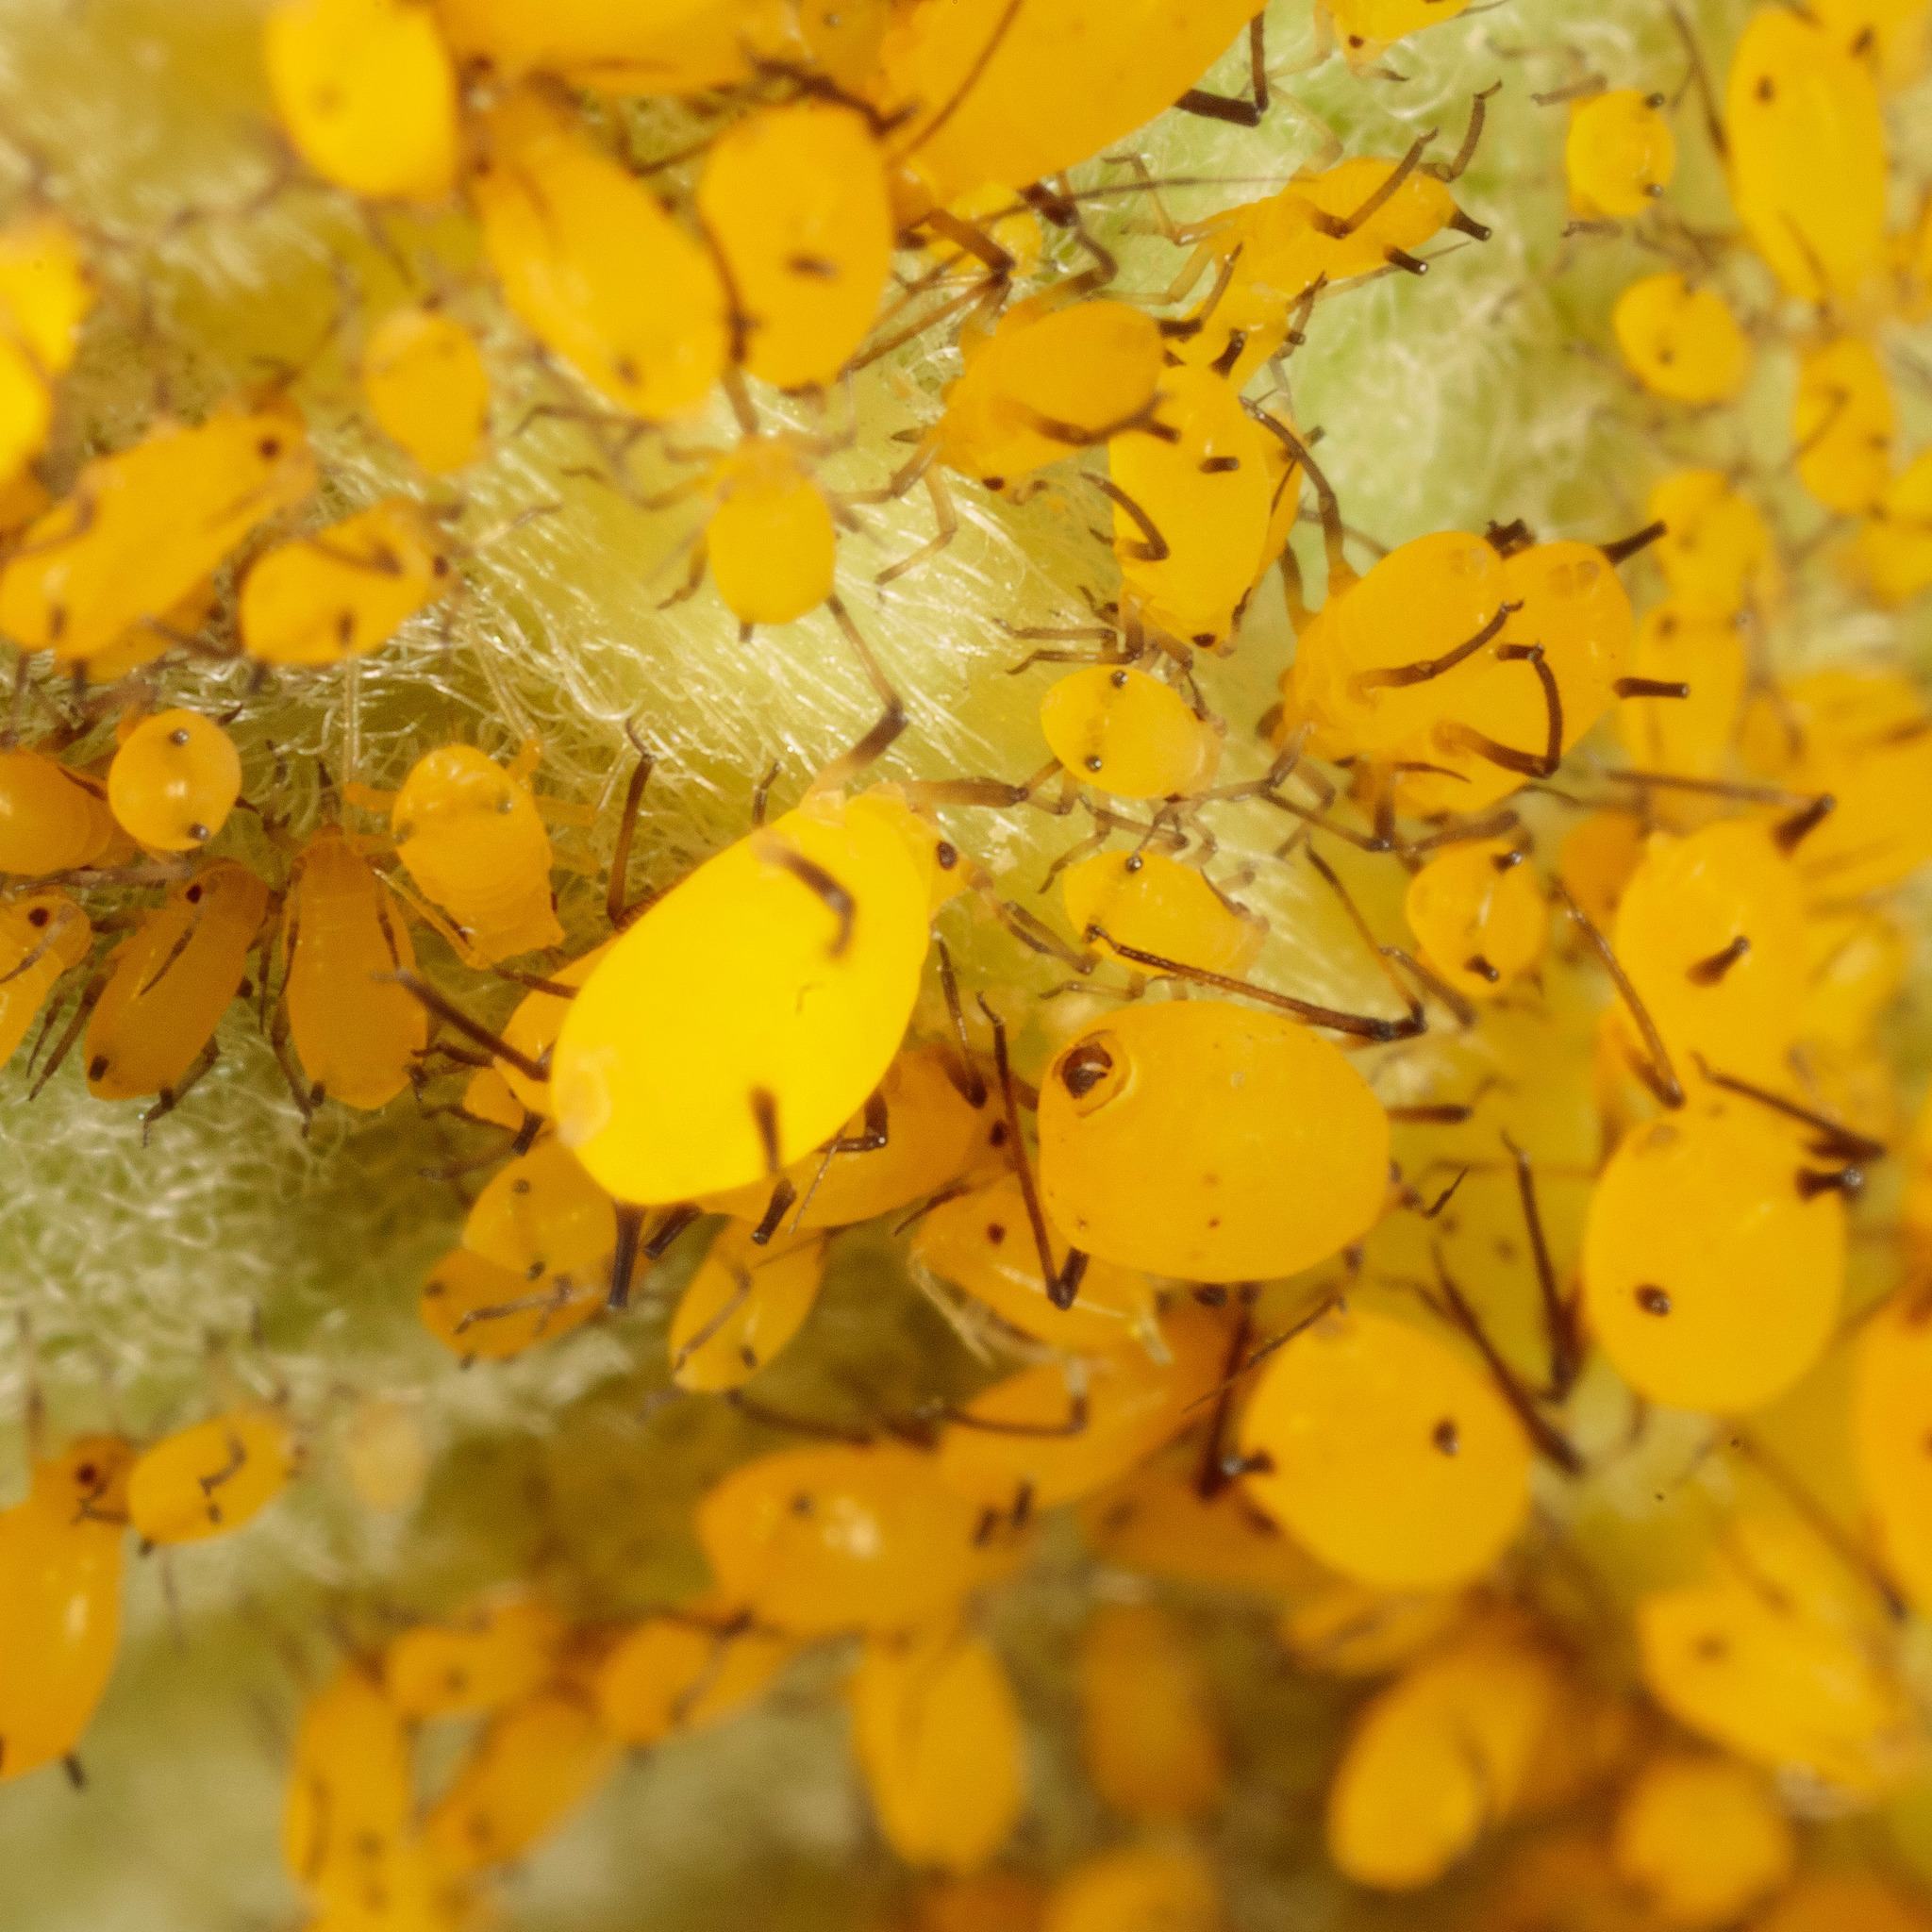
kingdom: Animalia
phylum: Arthropoda
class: Insecta
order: Hemiptera
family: Aphididae
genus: Aphis
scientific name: Aphis nerii
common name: Oleander aphid
